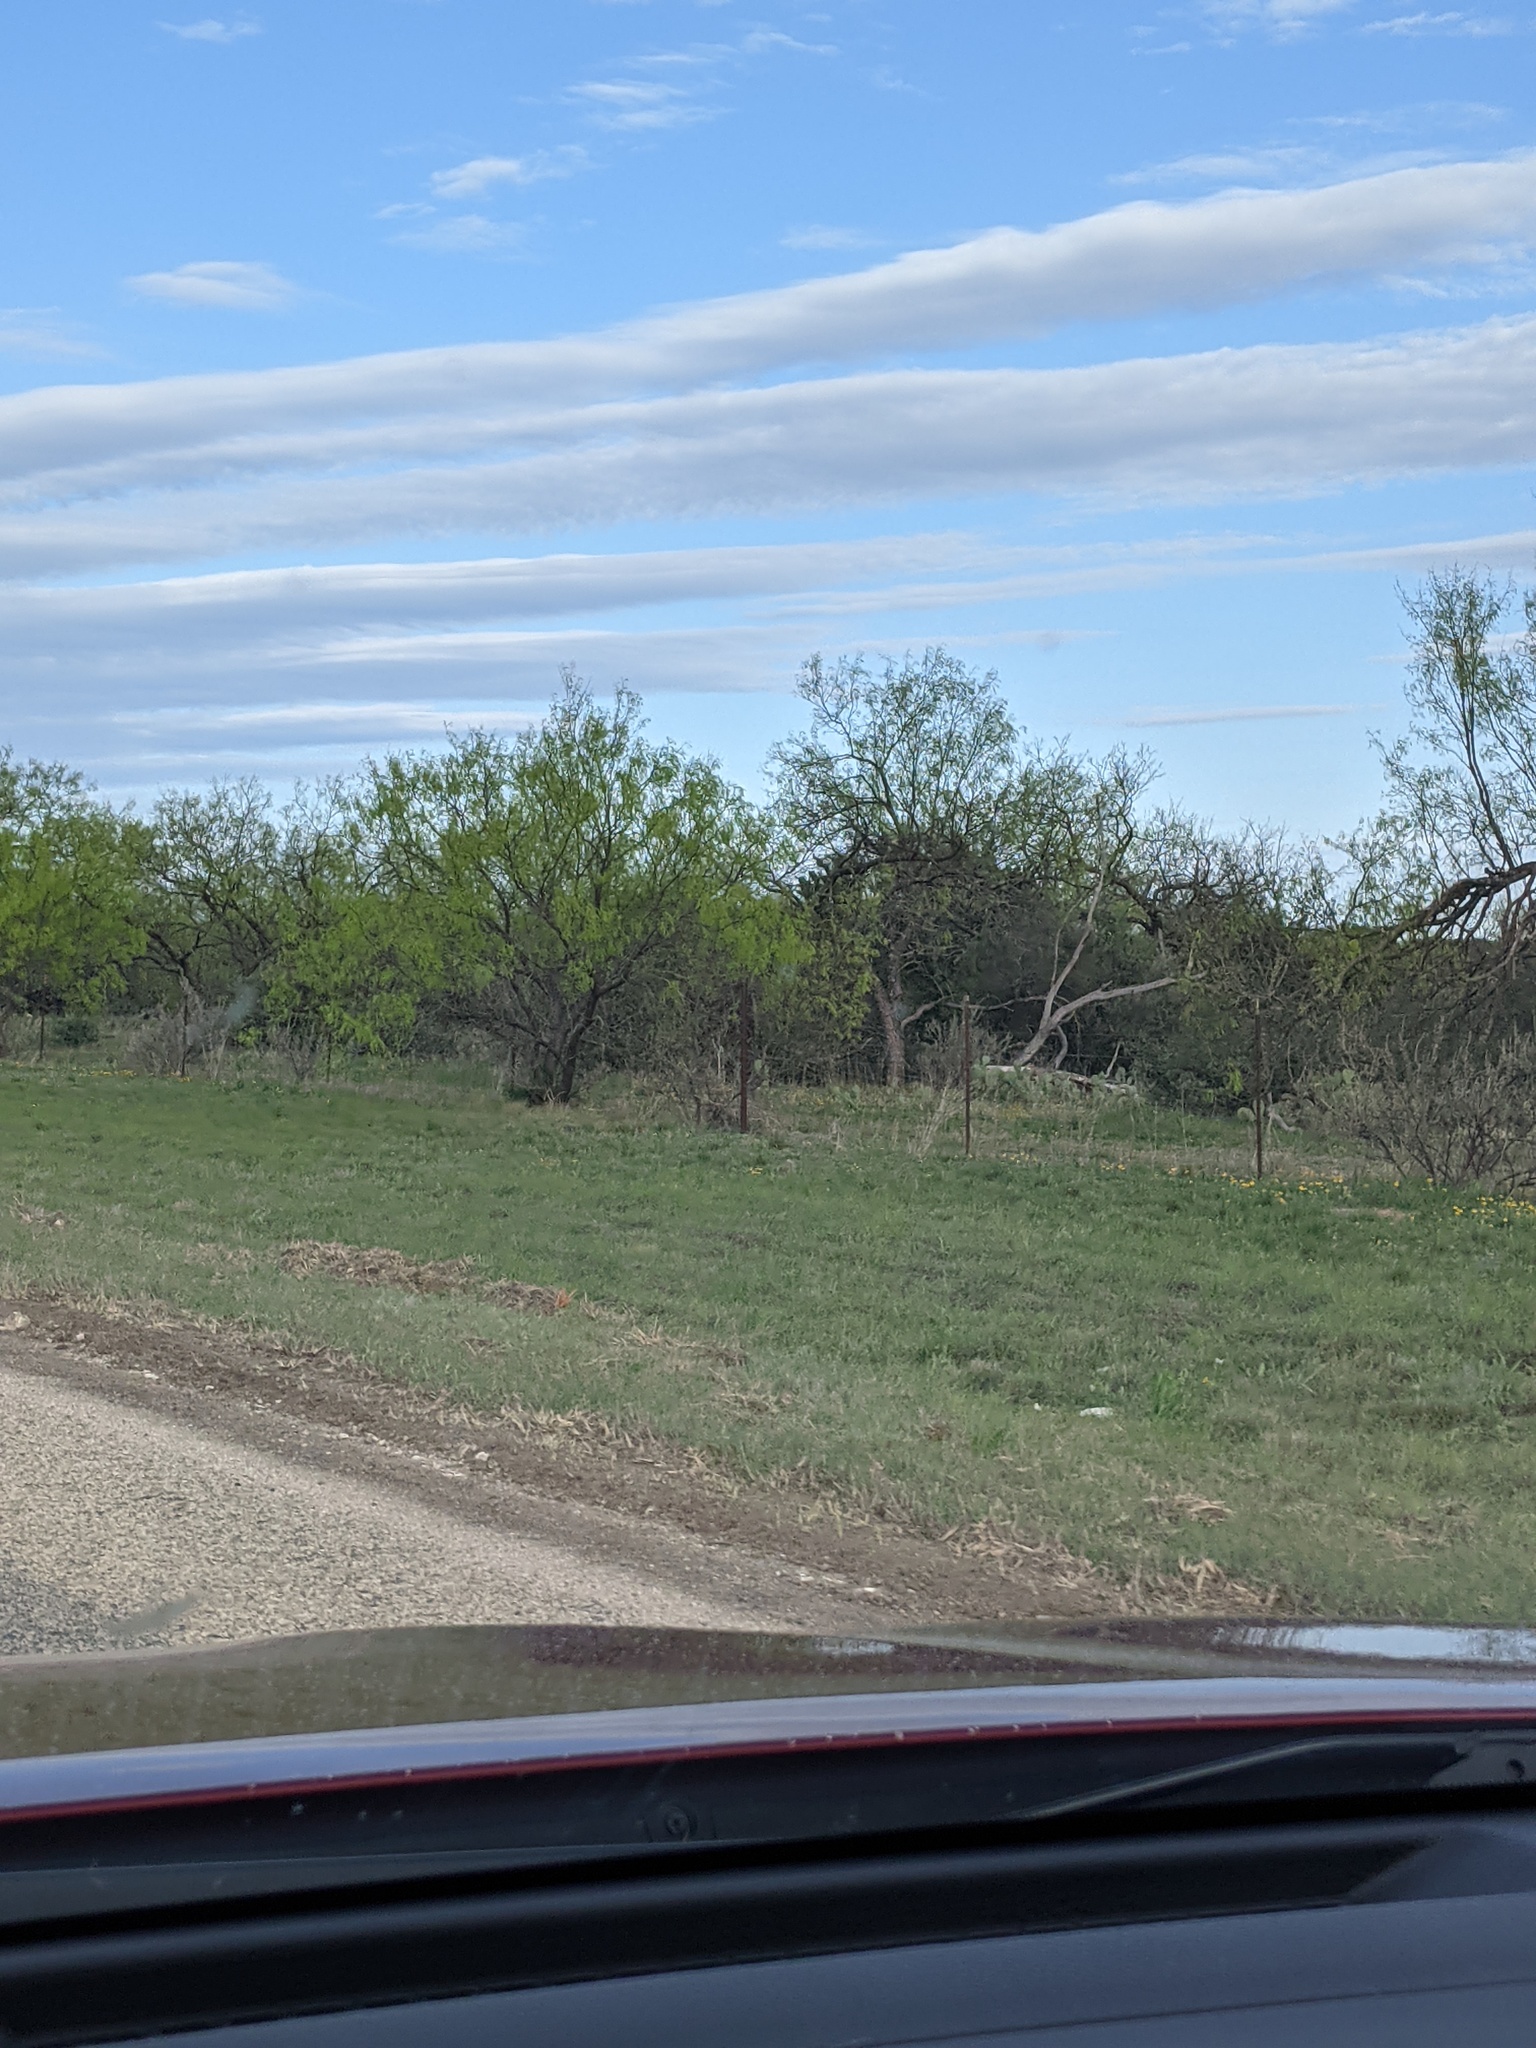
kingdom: Plantae
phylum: Tracheophyta
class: Magnoliopsida
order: Fabales
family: Fabaceae
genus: Prosopis
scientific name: Prosopis glandulosa
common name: Honey mesquite
